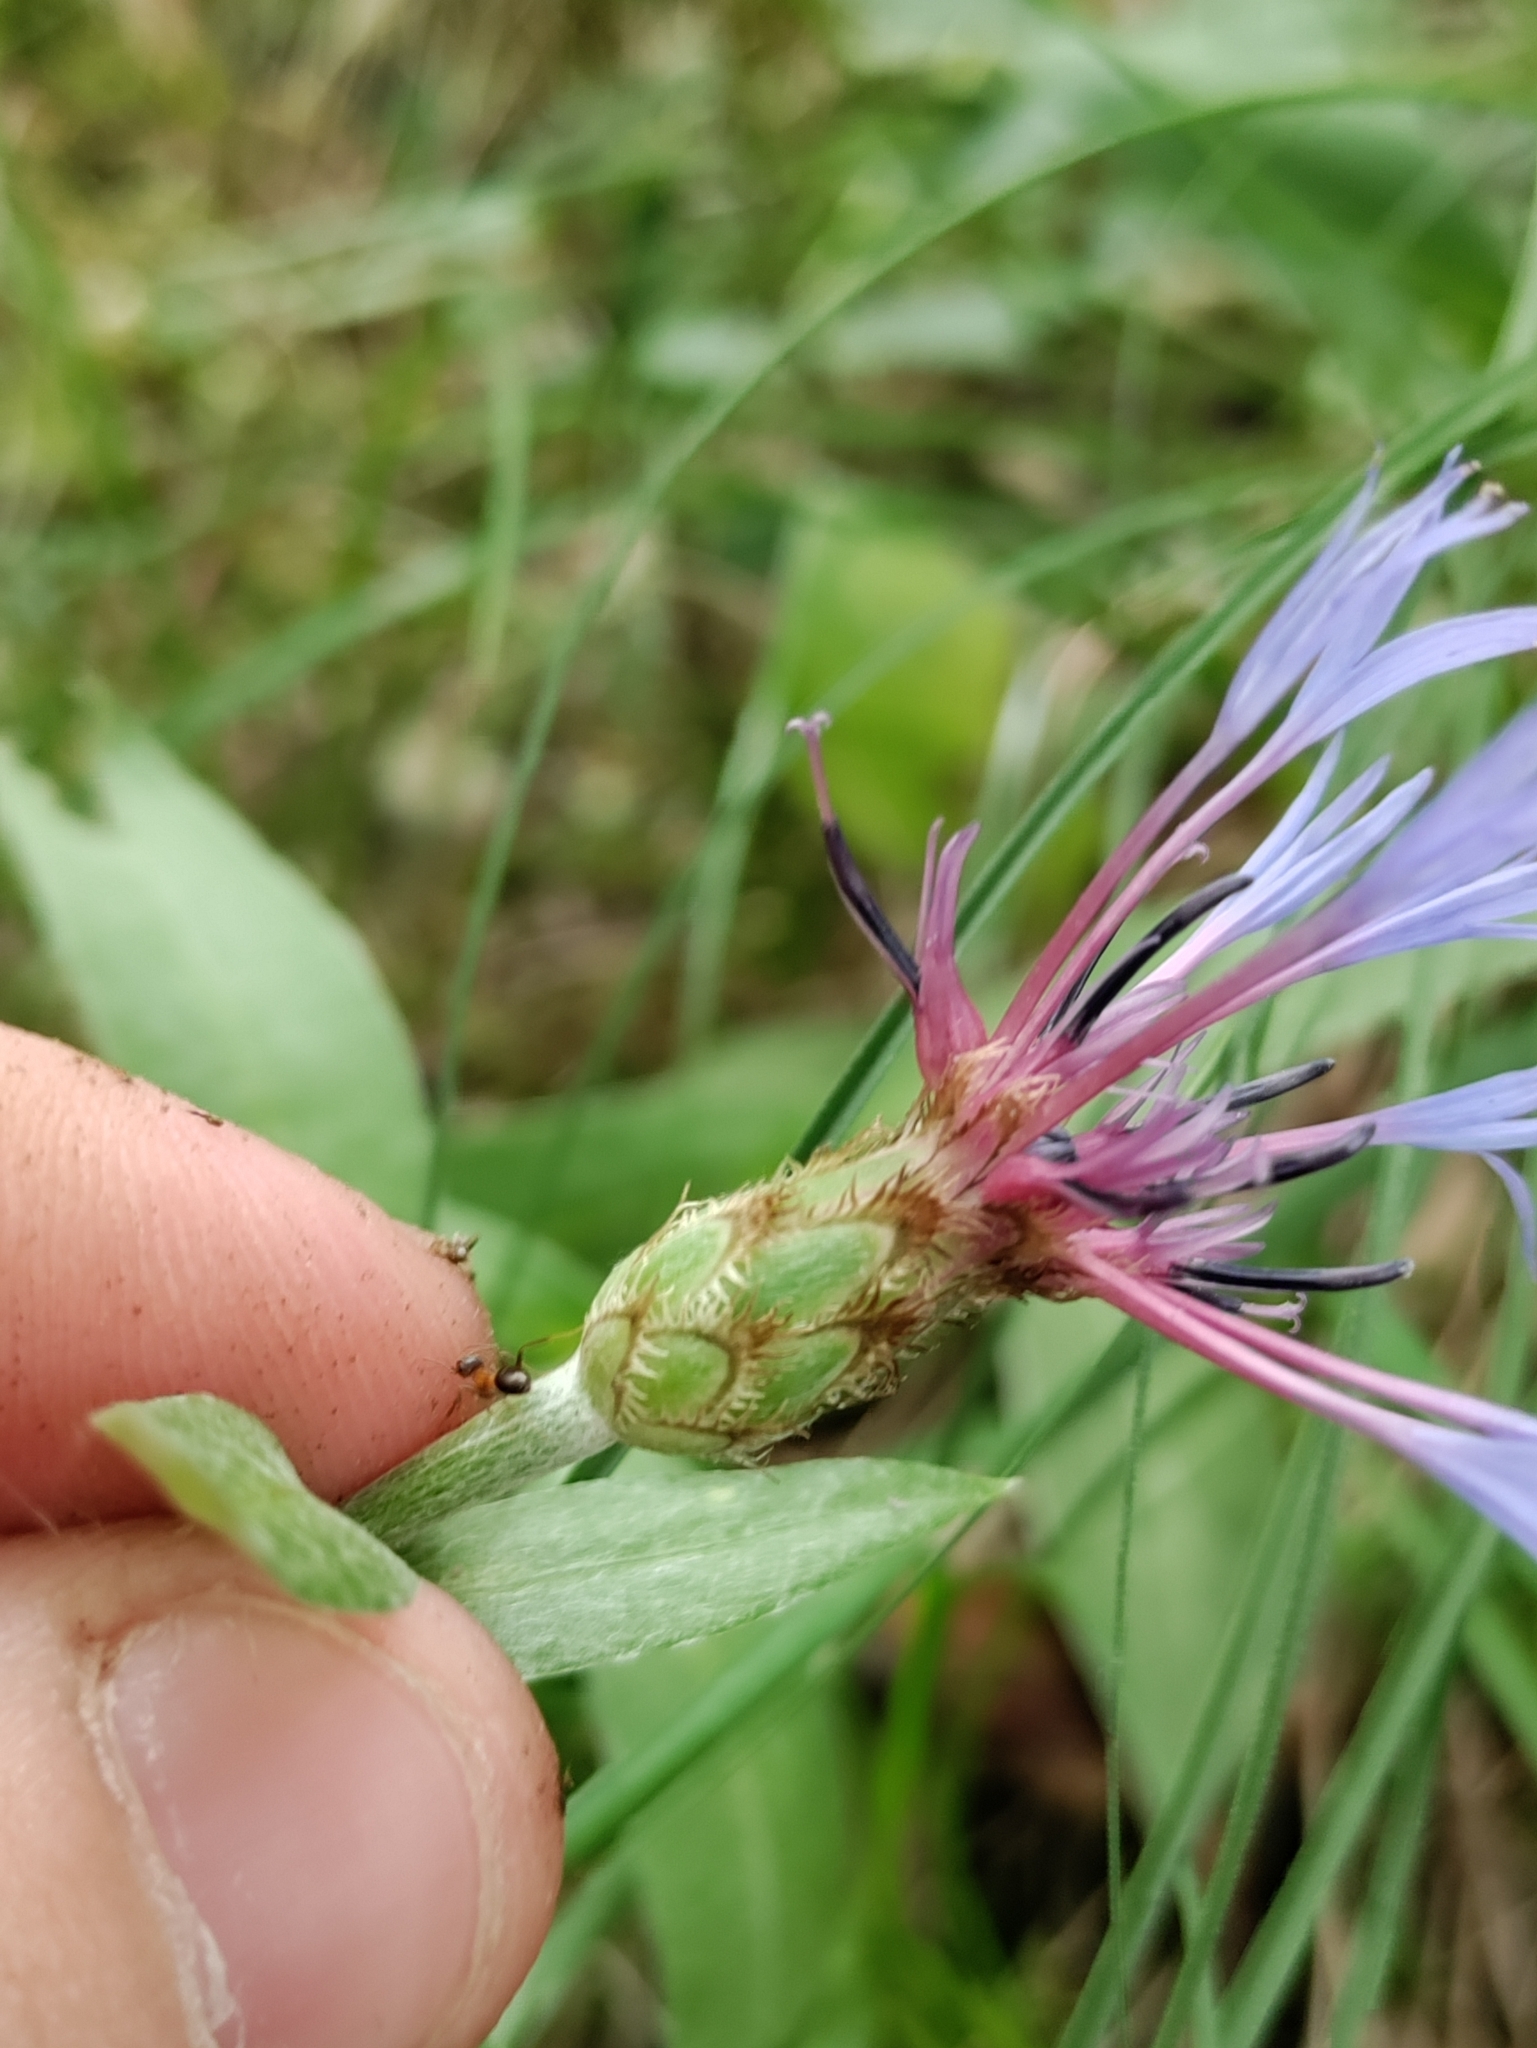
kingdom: Plantae
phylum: Tracheophyta
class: Magnoliopsida
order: Asterales
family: Asteraceae
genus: Centaurea
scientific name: Centaurea triumfettii
